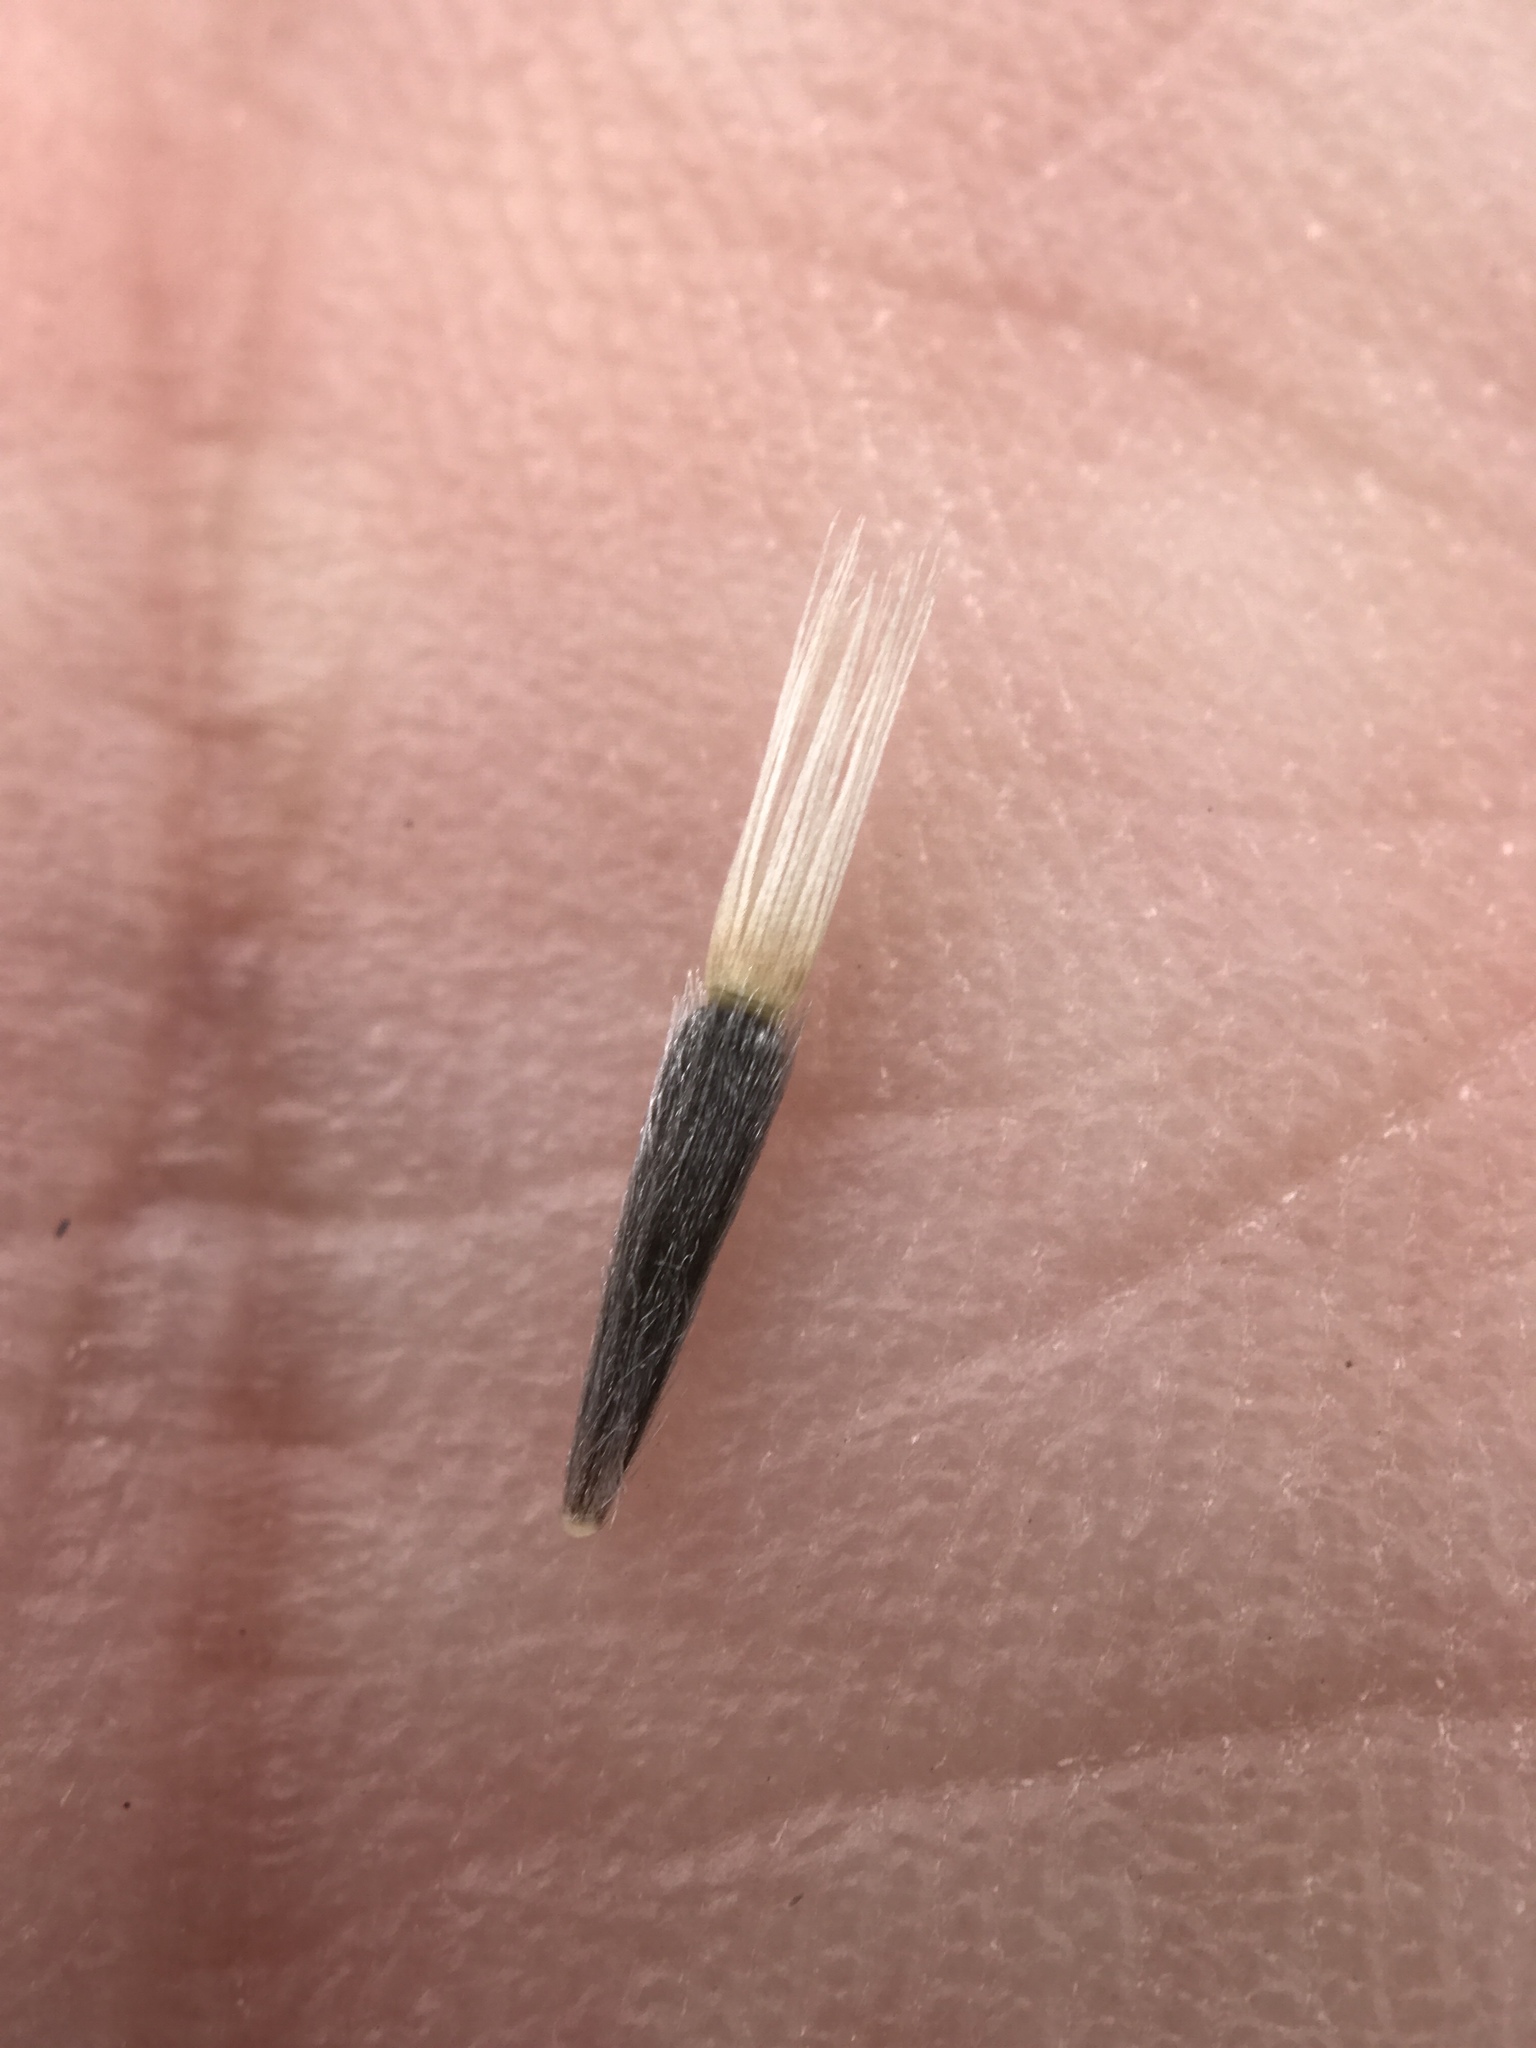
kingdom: Plantae
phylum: Tracheophyta
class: Magnoliopsida
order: Asterales
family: Asteraceae
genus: Layia
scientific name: Layia platyglossa
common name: Tidy-tips
